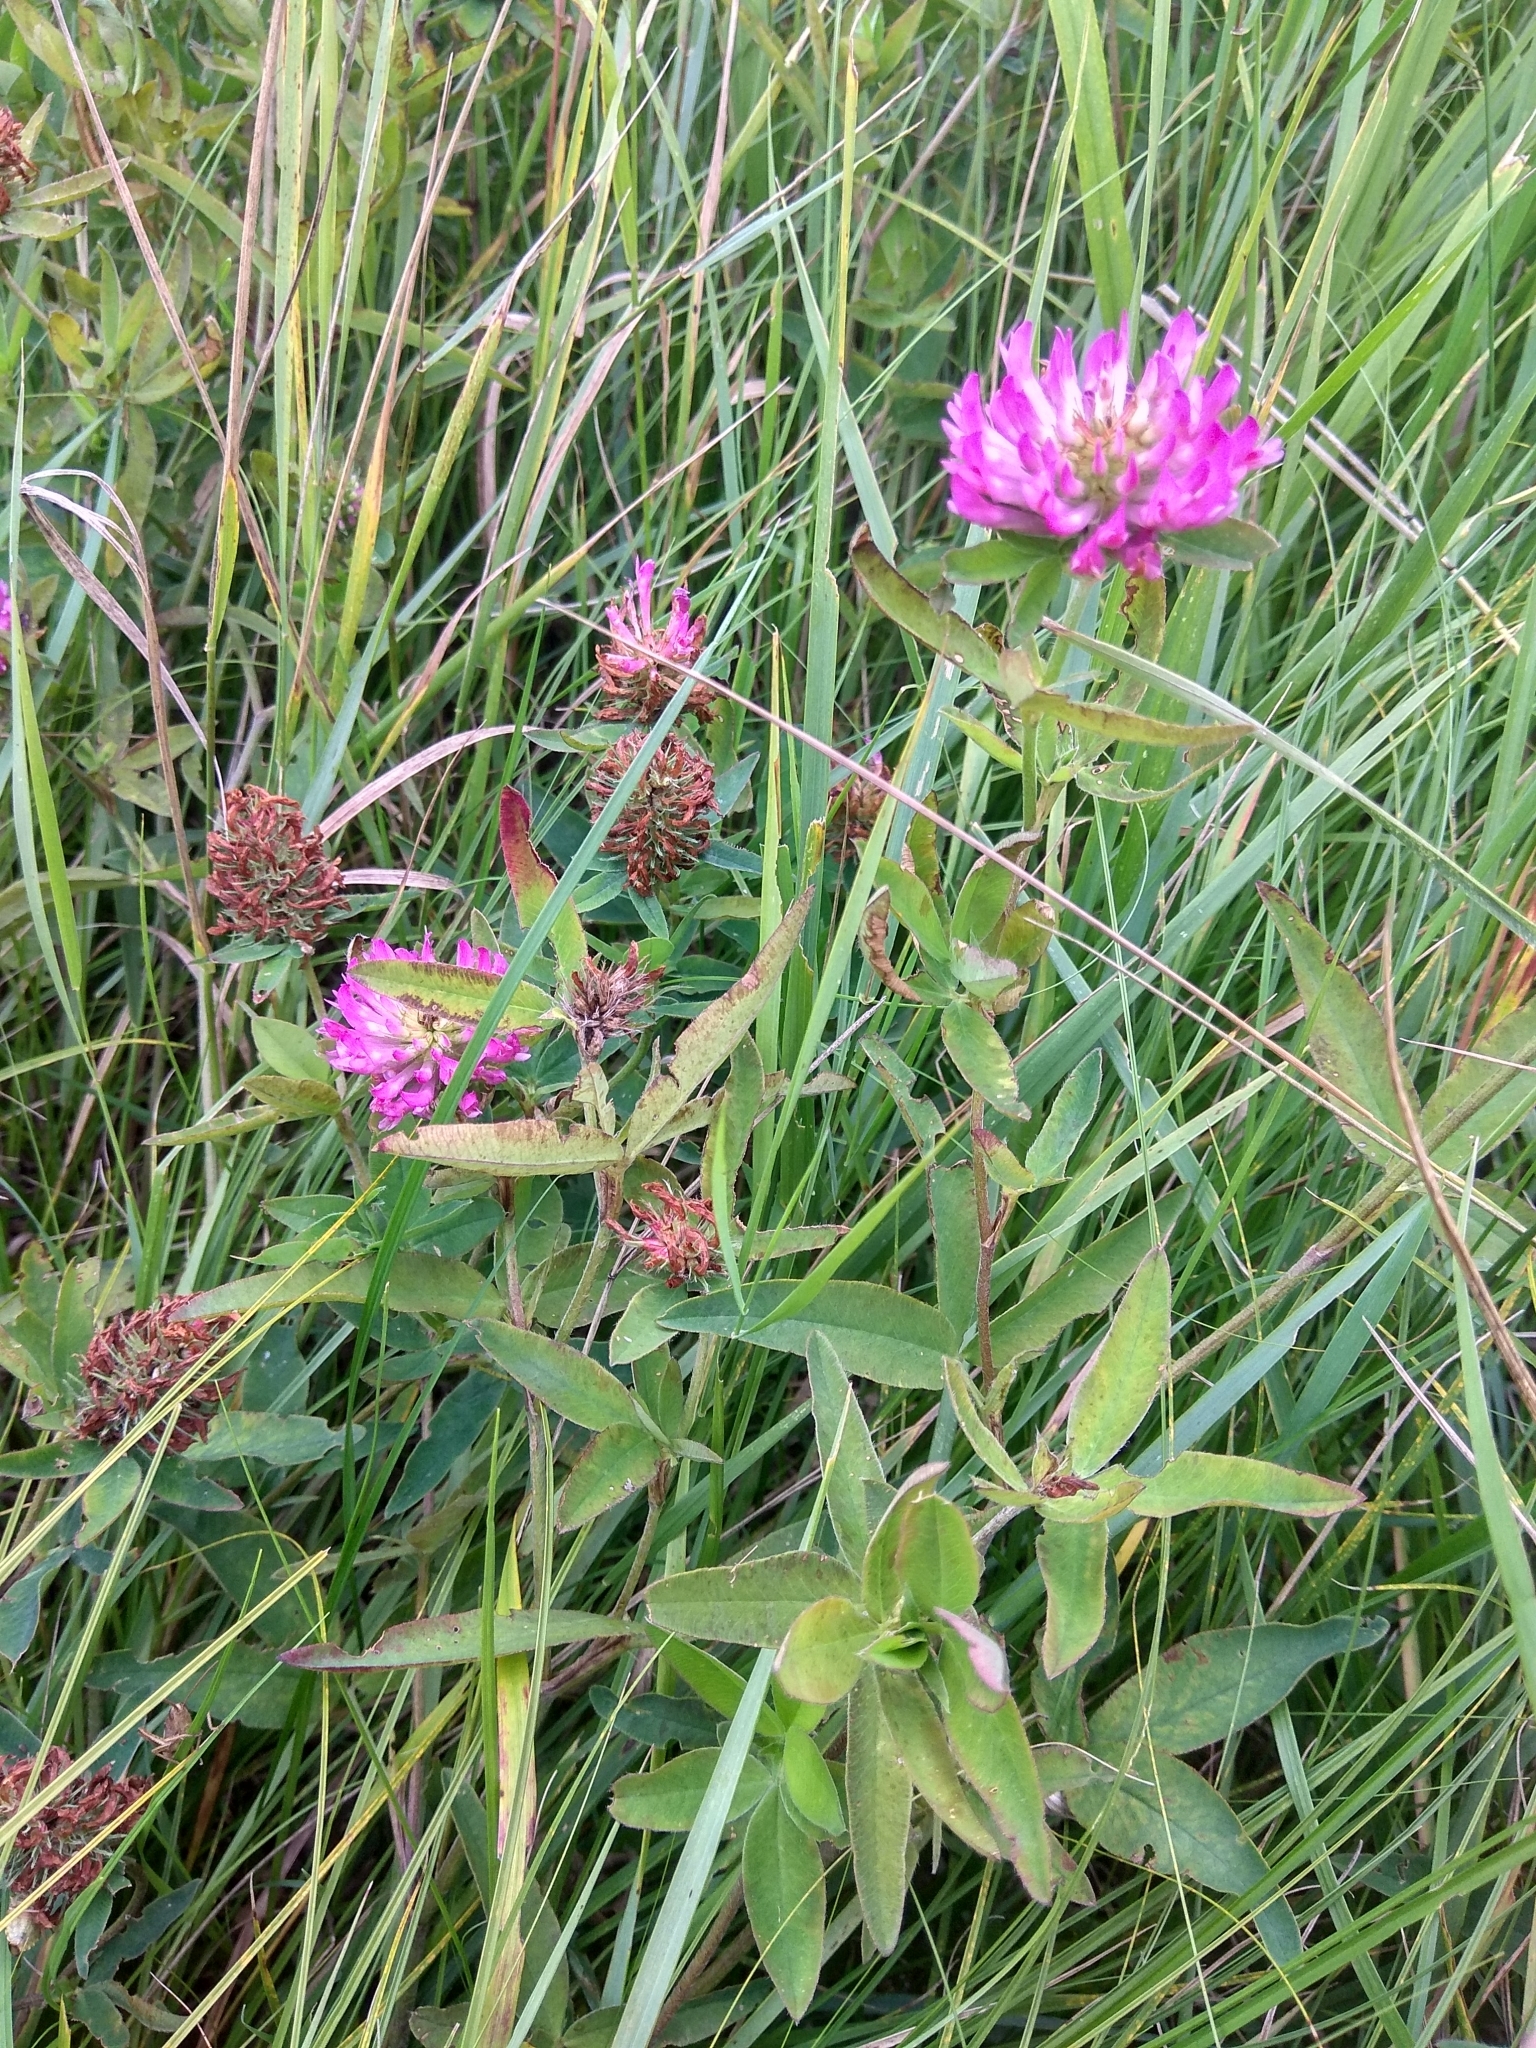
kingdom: Plantae
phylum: Tracheophyta
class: Magnoliopsida
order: Fabales
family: Fabaceae
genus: Trifolium
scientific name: Trifolium medium
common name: Zigzag clover
